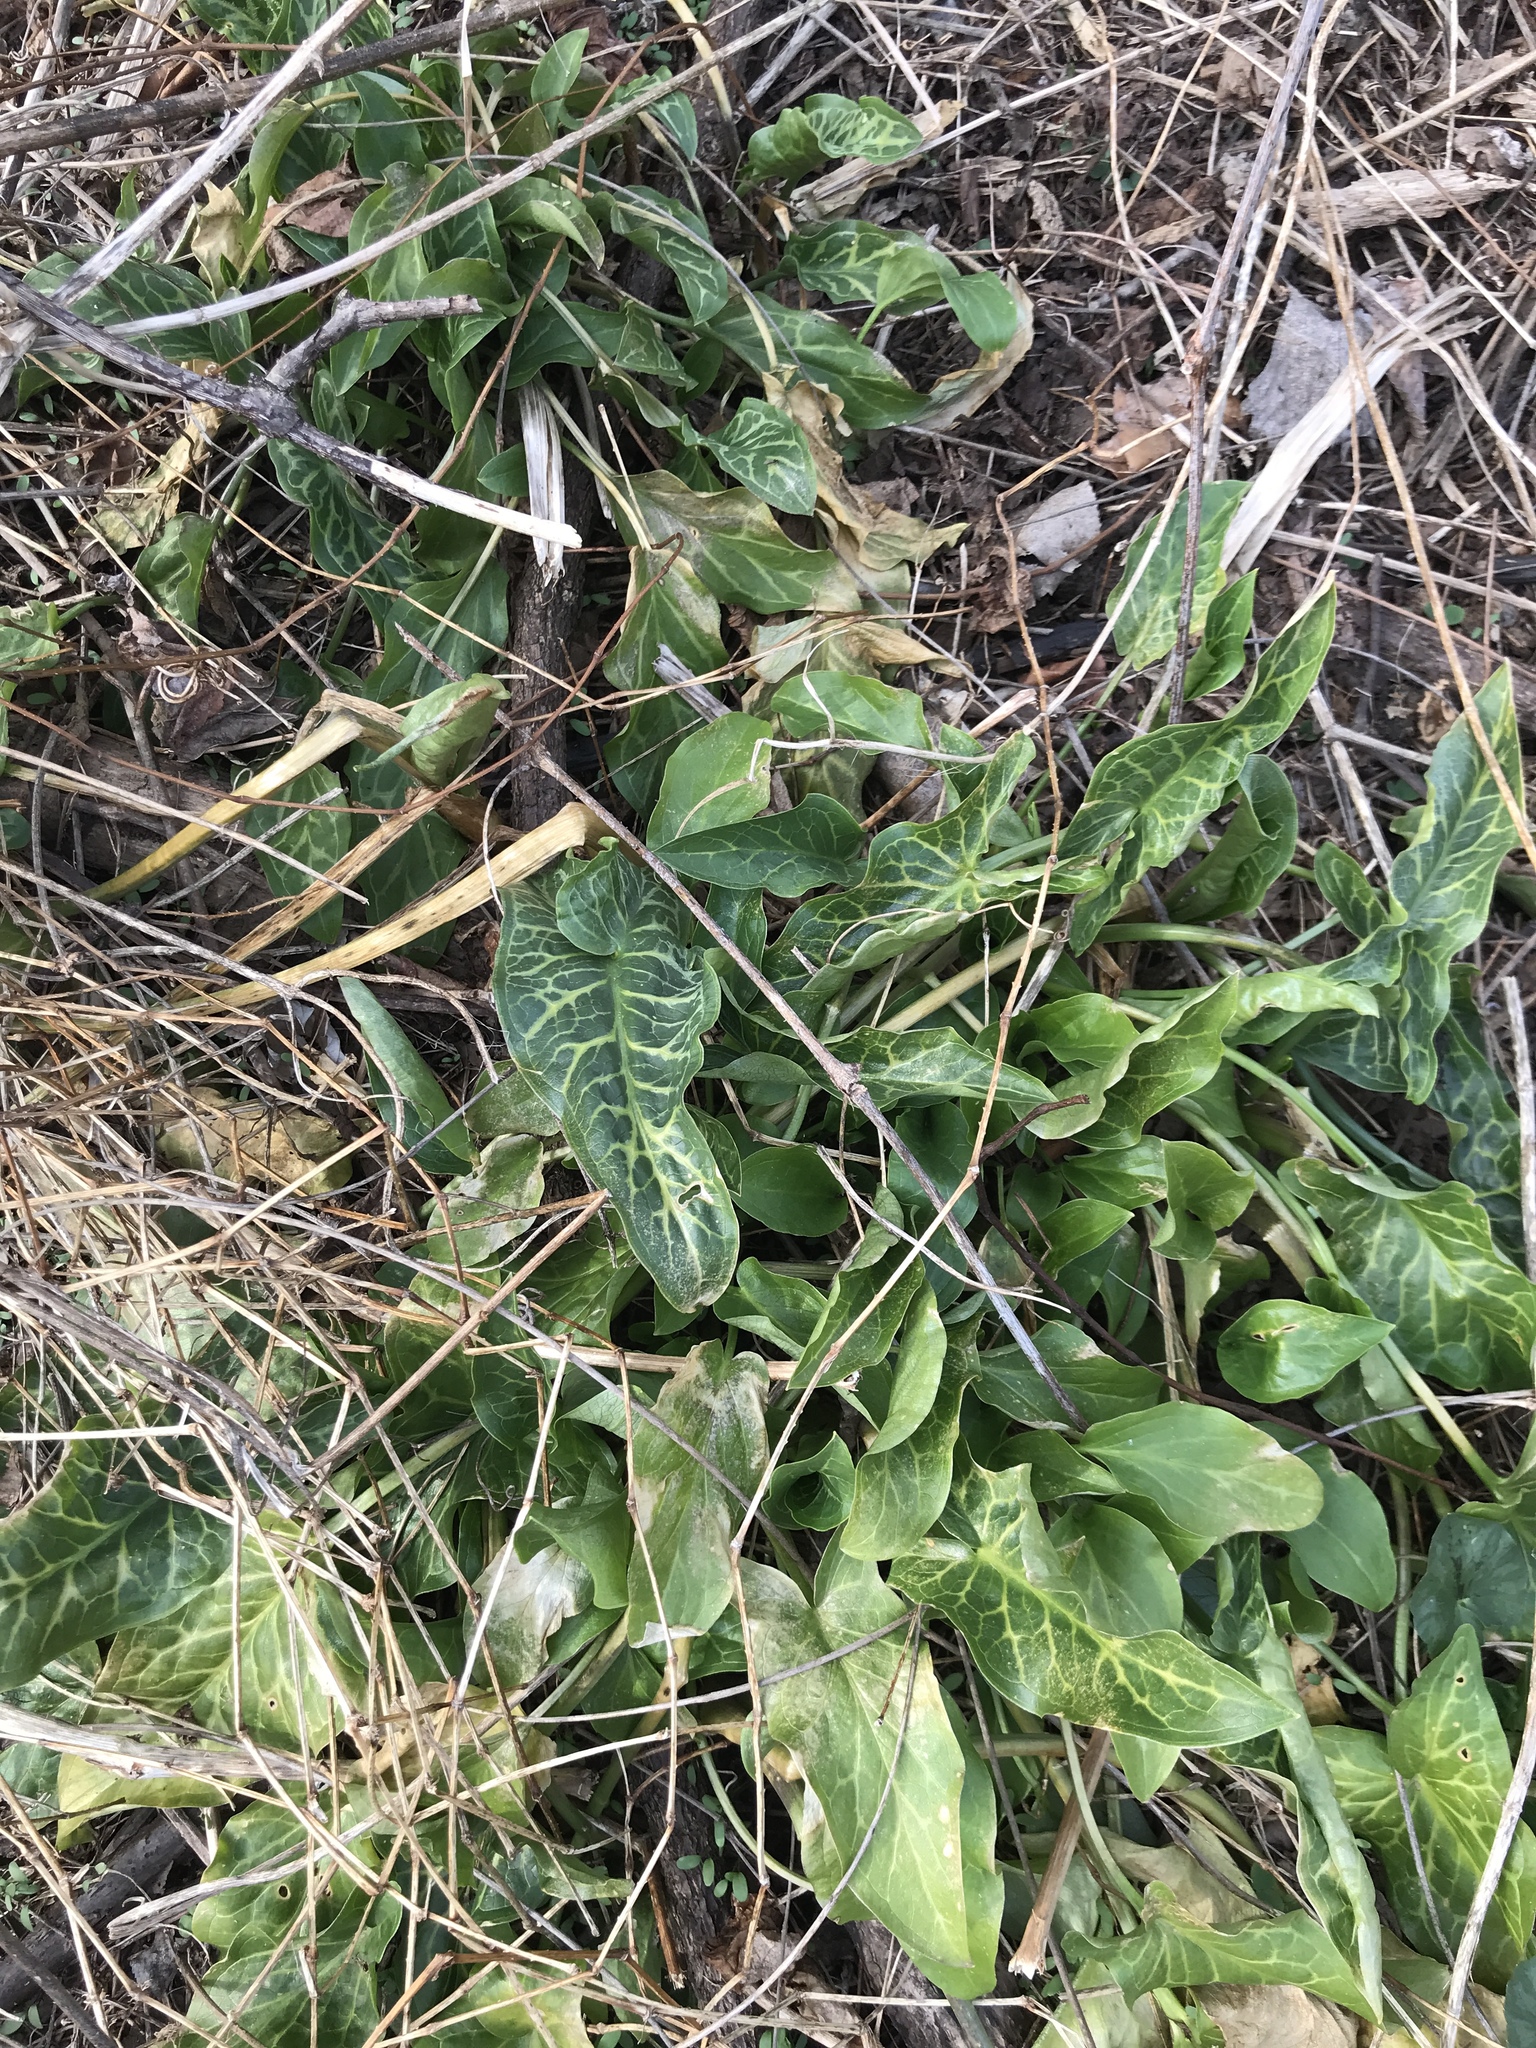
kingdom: Plantae
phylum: Tracheophyta
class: Liliopsida
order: Alismatales
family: Araceae
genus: Arum
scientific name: Arum italicum
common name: Italian lords-and-ladies
